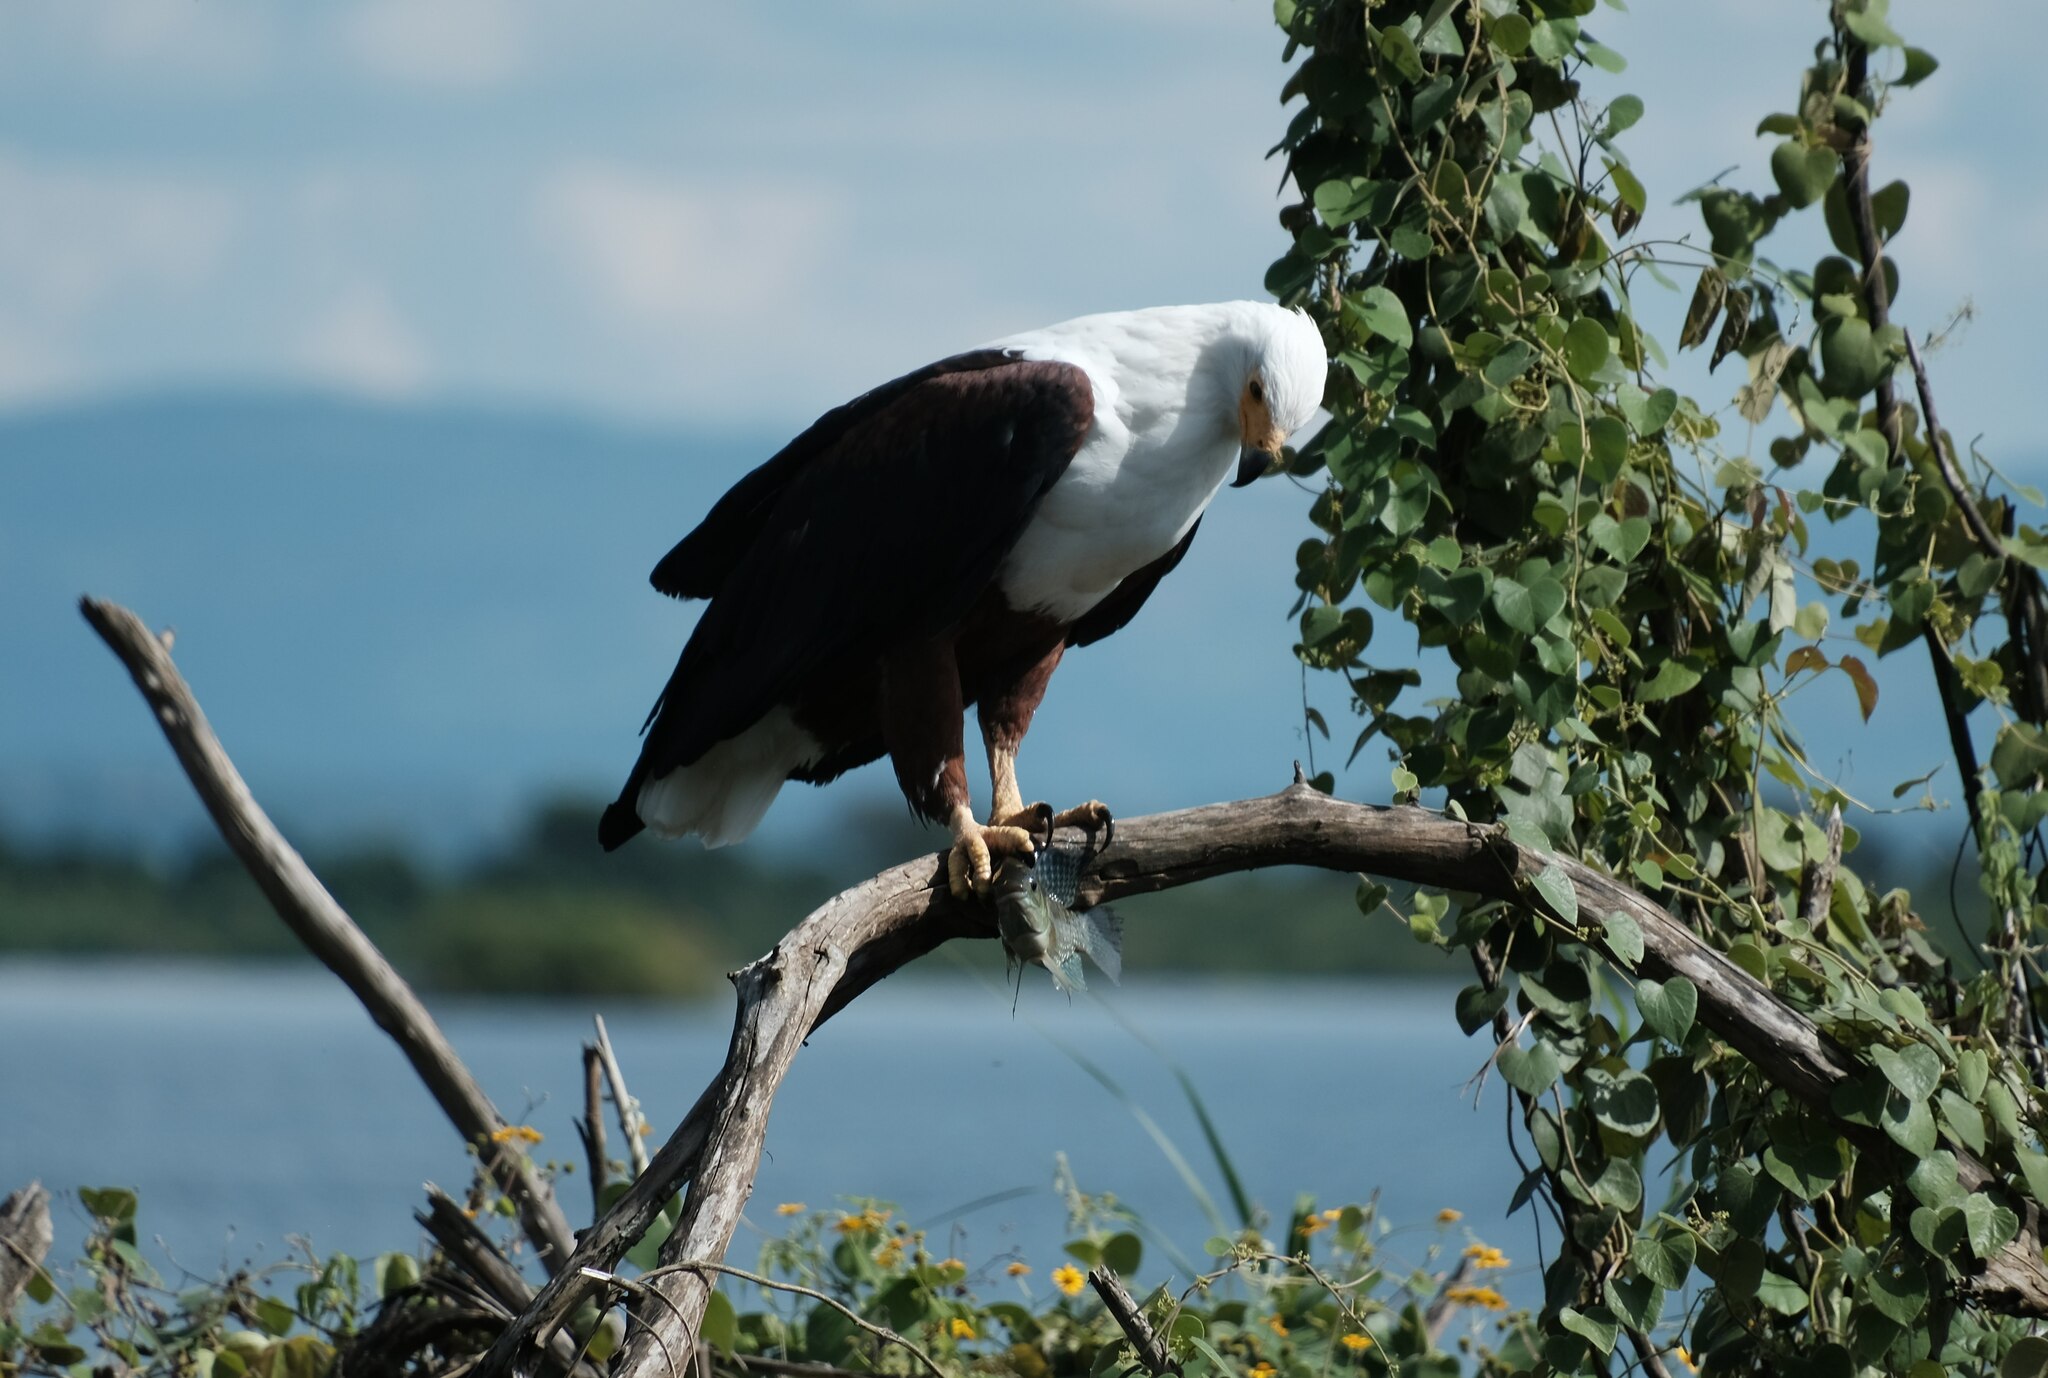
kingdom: Animalia
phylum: Chordata
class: Aves
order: Accipitriformes
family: Accipitridae
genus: Haliaeetus
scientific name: Haliaeetus vocifer
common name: African fish eagle
